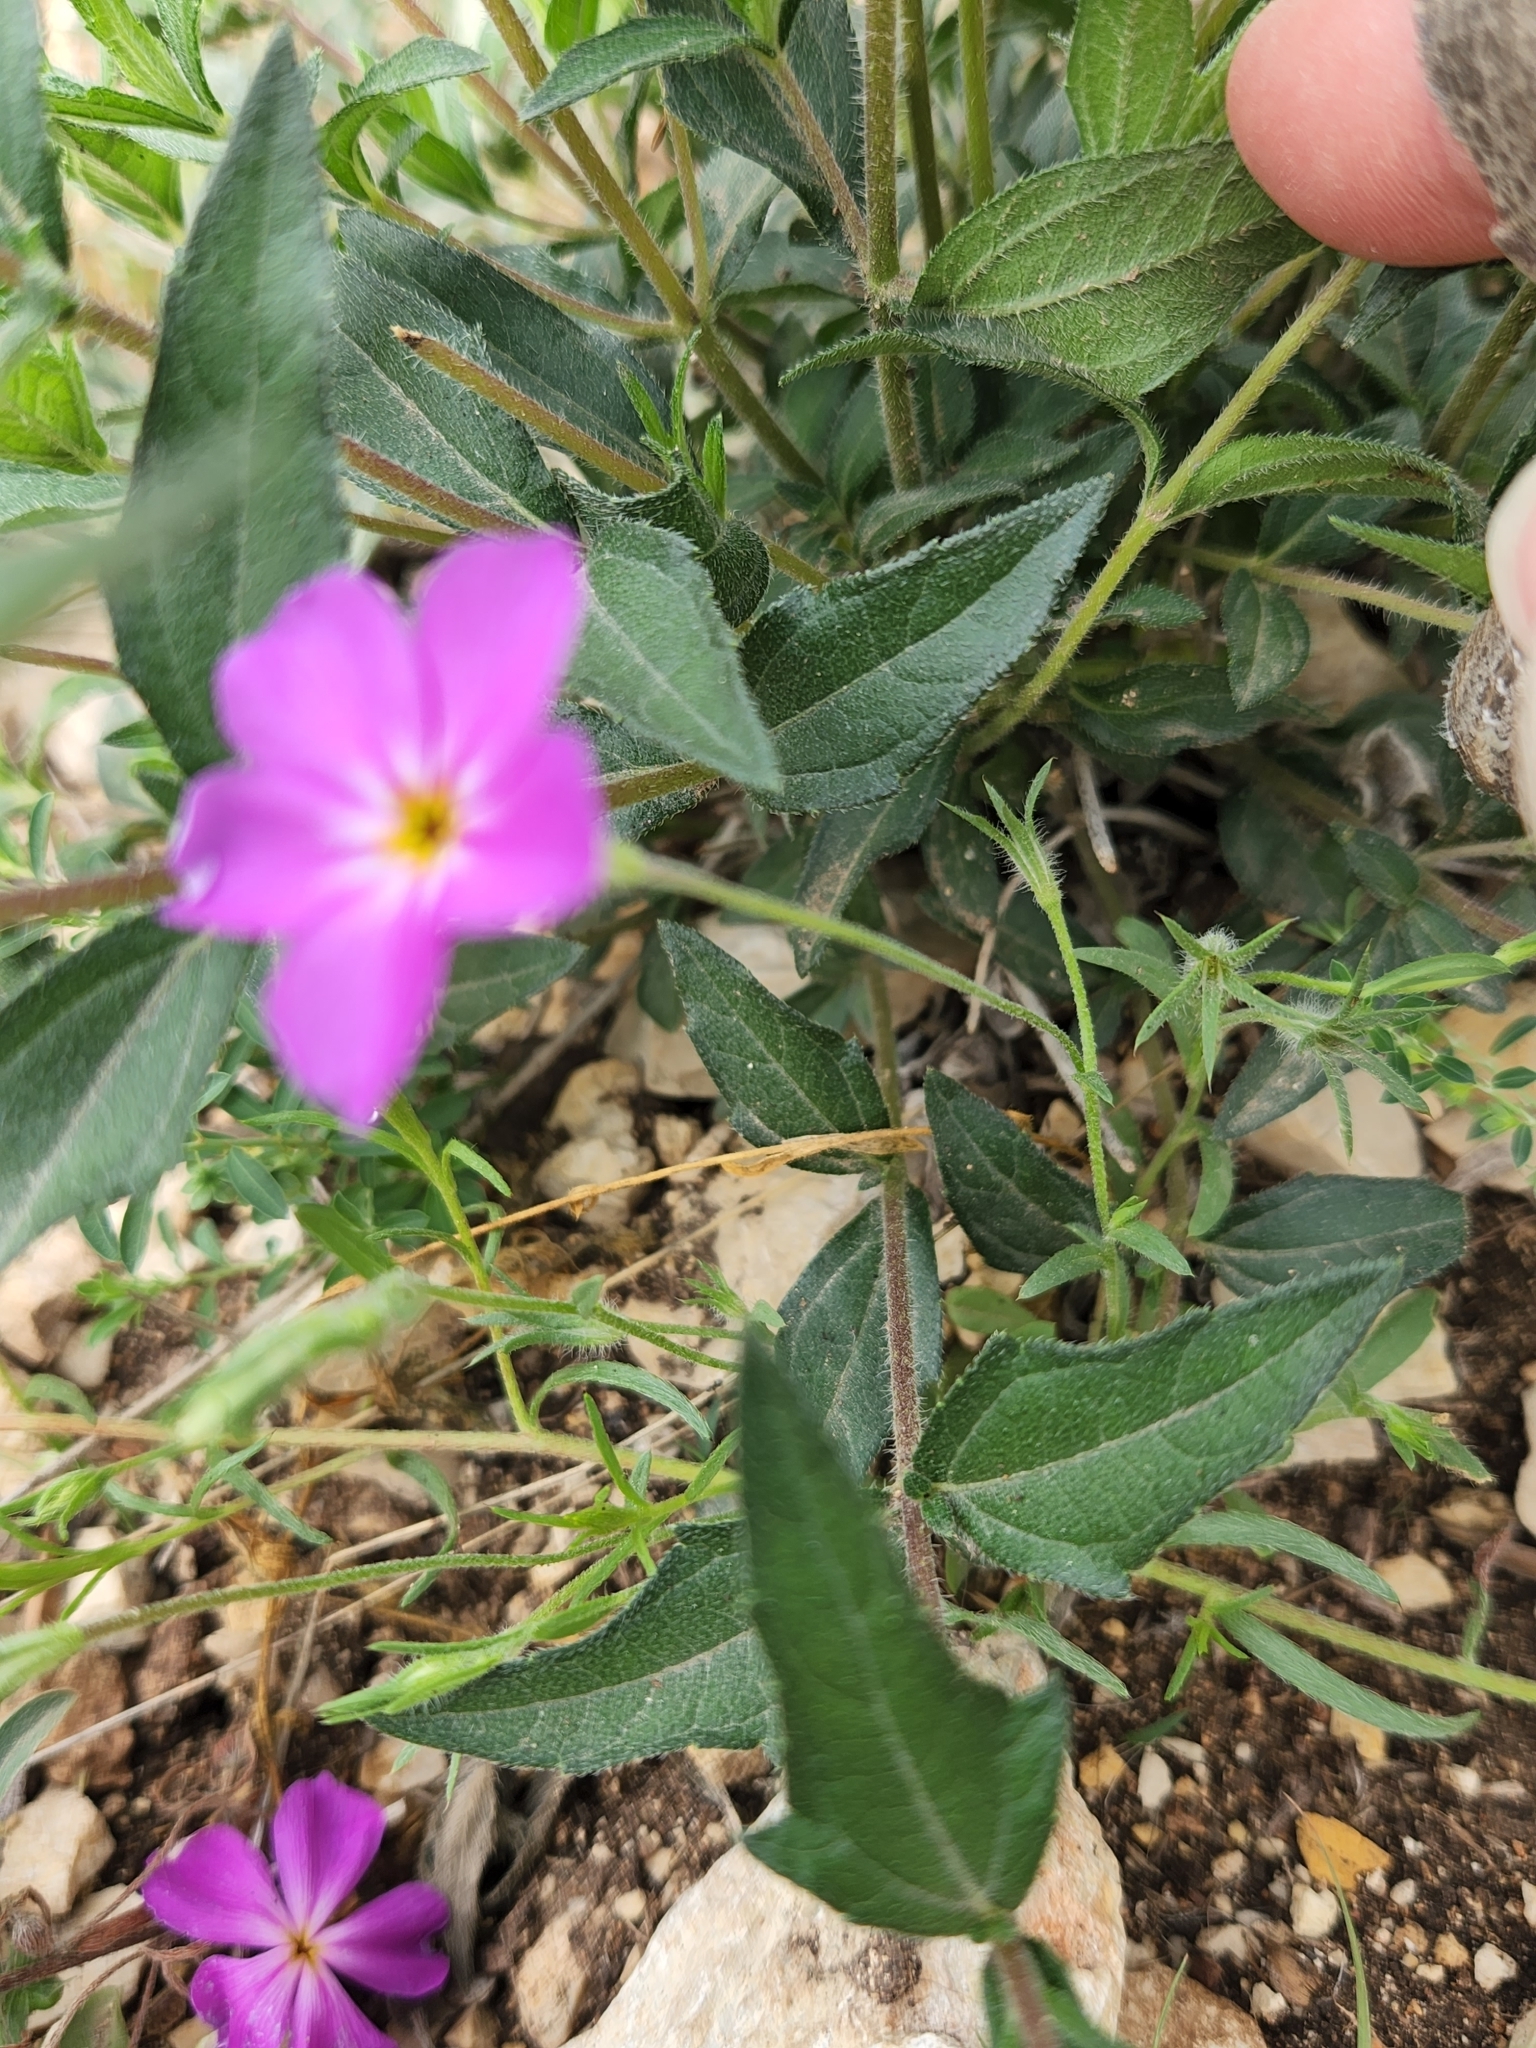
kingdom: Plantae
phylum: Tracheophyta
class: Magnoliopsida
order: Ericales
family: Polemoniaceae
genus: Phlox
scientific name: Phlox roemeriana
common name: Roemer's phlox
